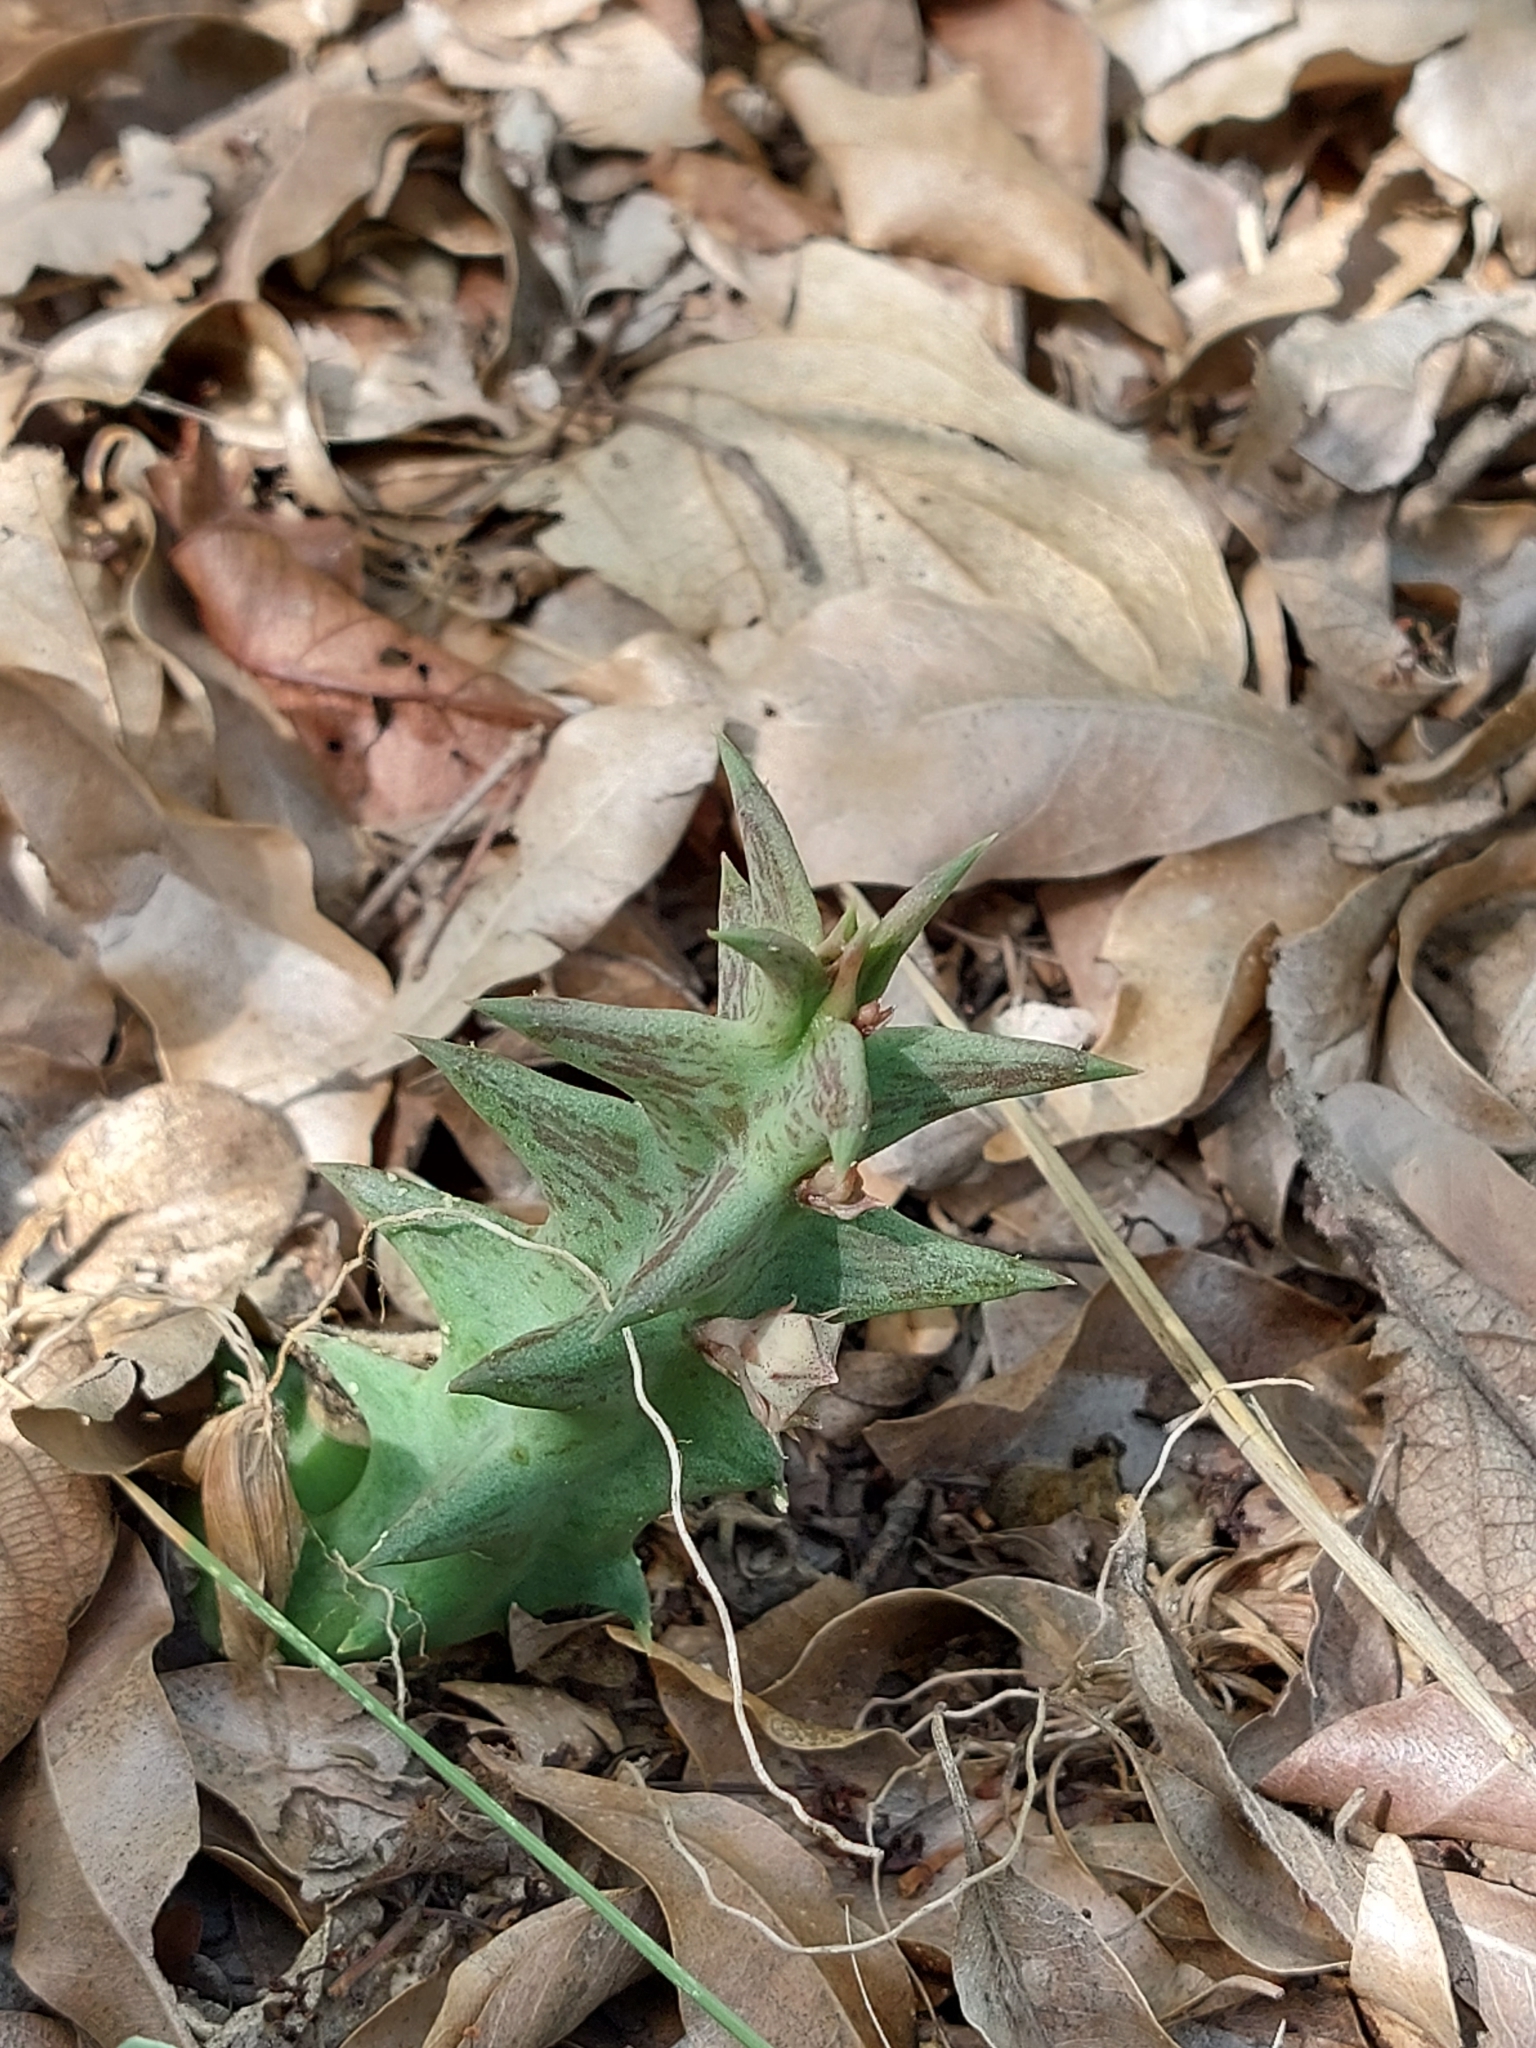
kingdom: Plantae
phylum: Tracheophyta
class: Magnoliopsida
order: Gentianales
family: Apocynaceae
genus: Ceropegia
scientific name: Ceropegia keithii
